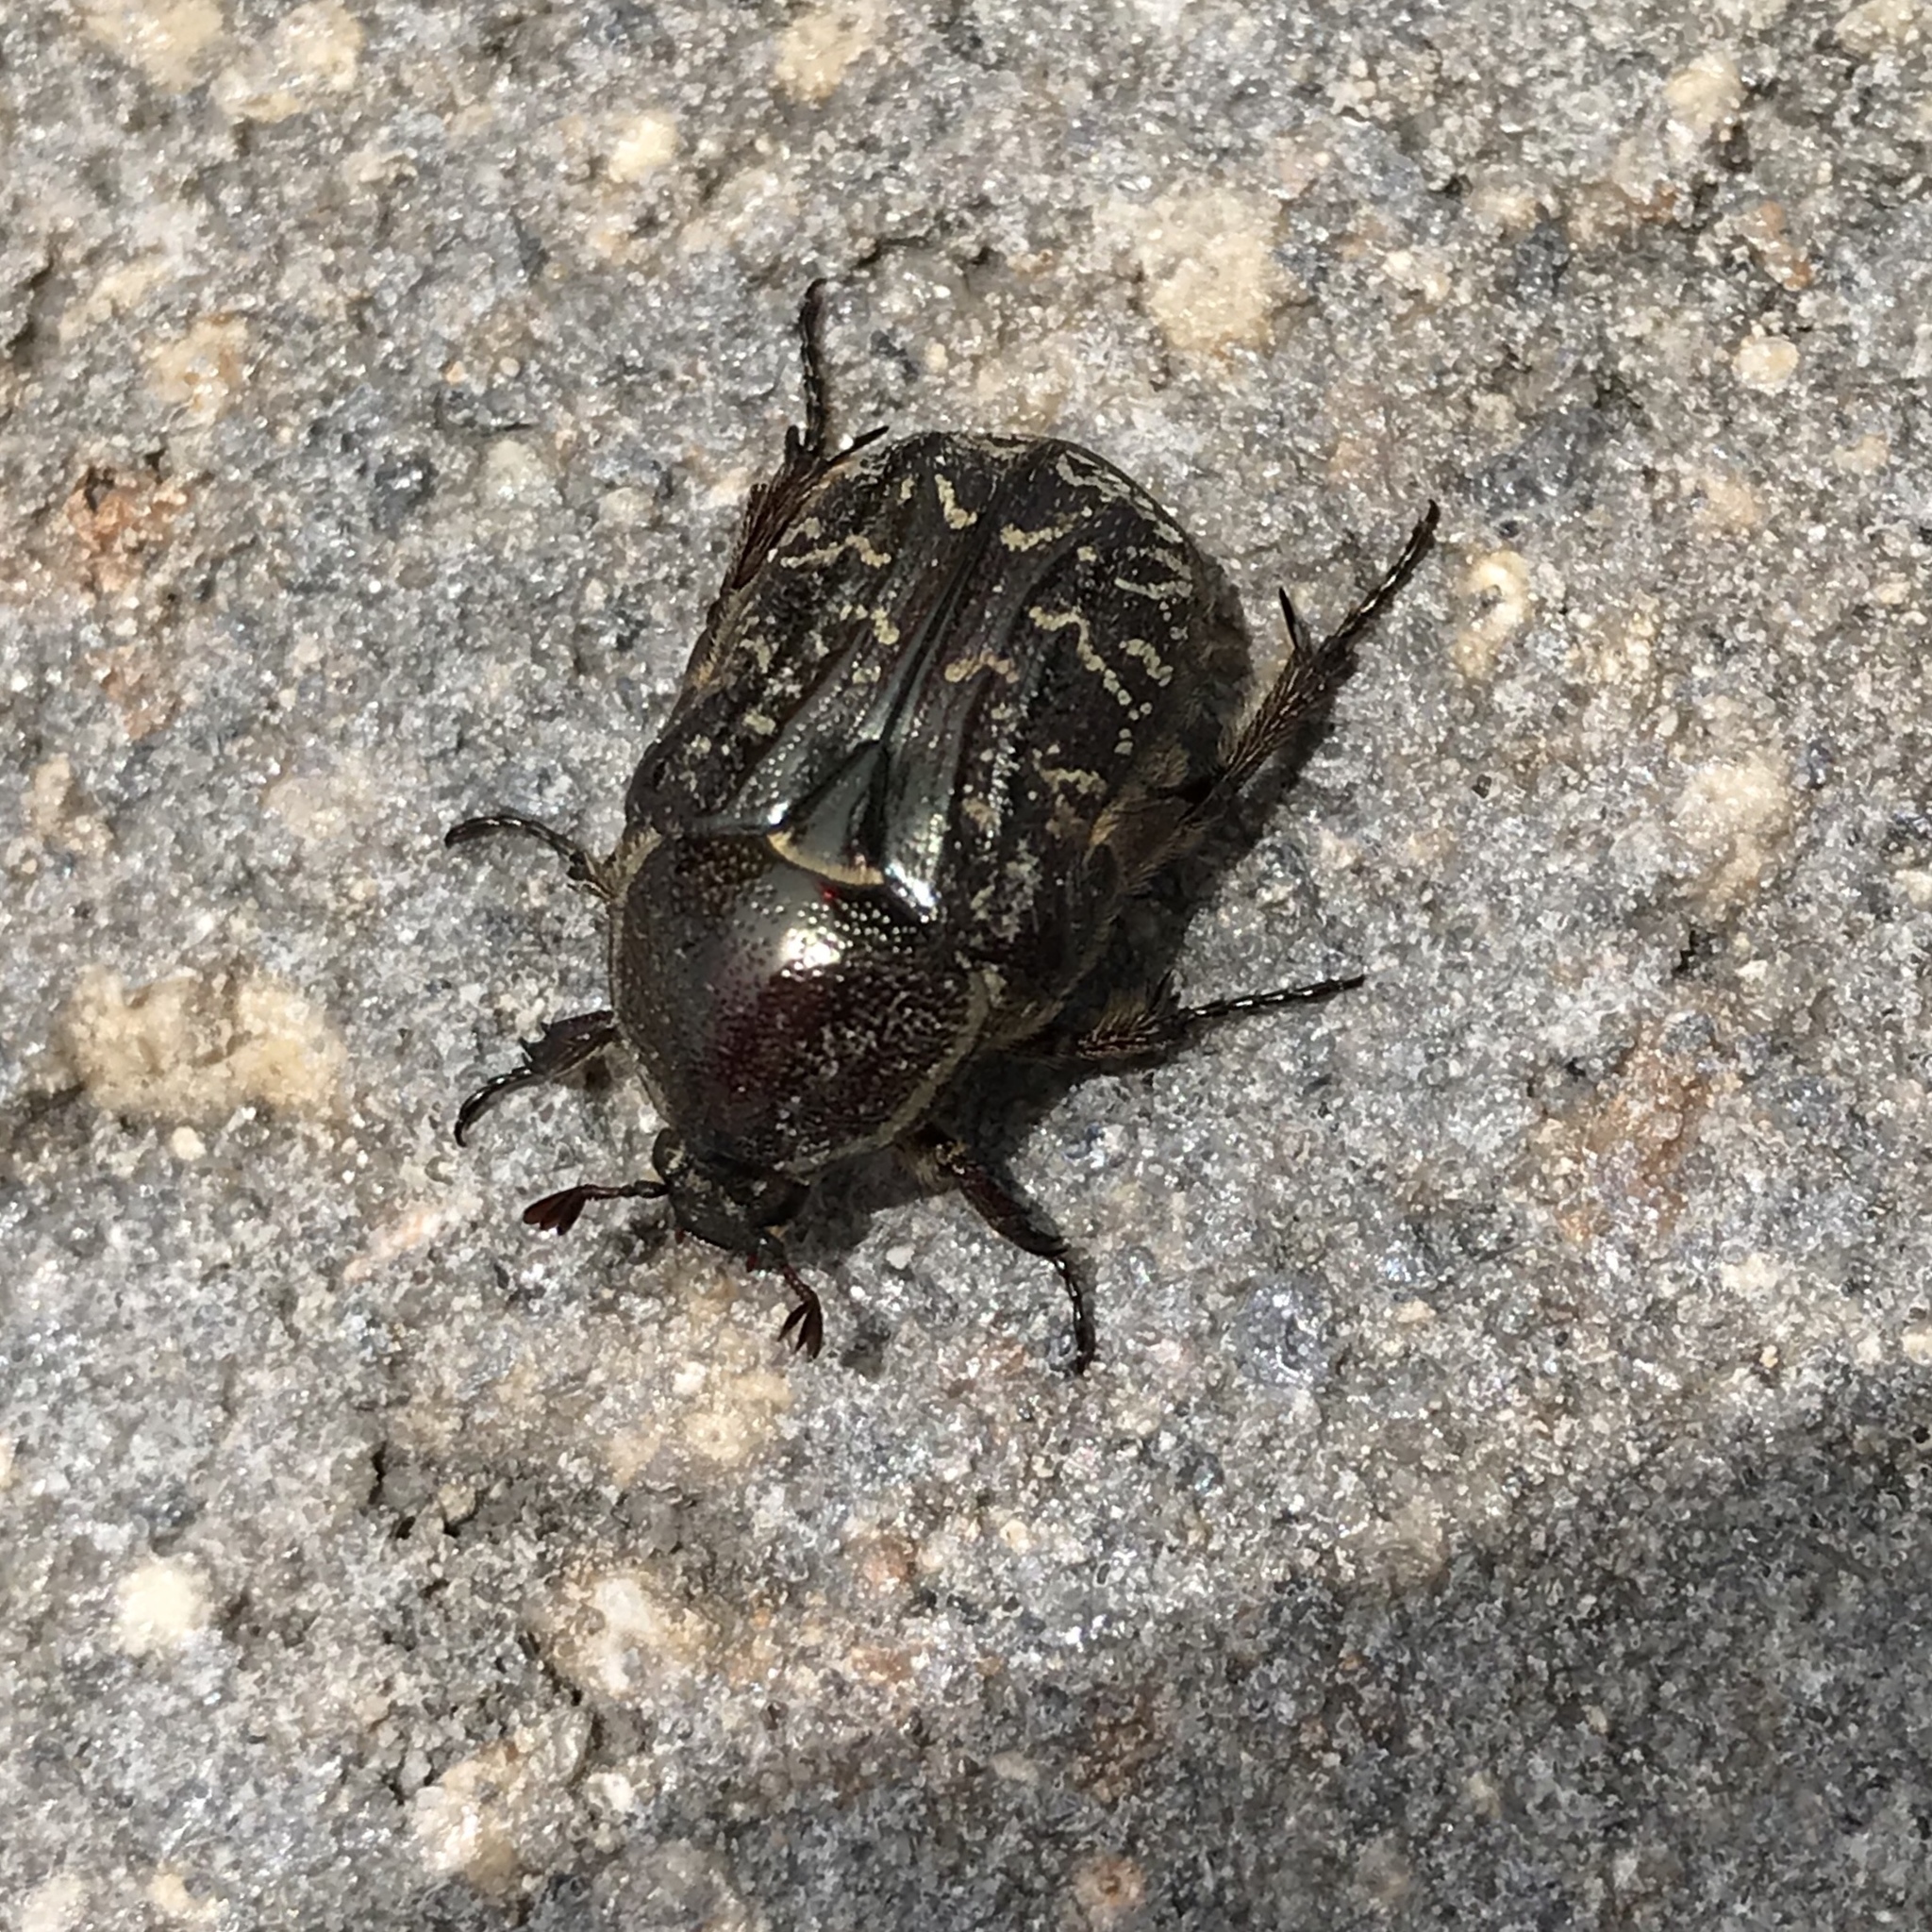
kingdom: Animalia
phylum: Arthropoda
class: Insecta
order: Coleoptera
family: Scarabaeidae
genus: Euphoria
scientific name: Euphoria sepulcralis
